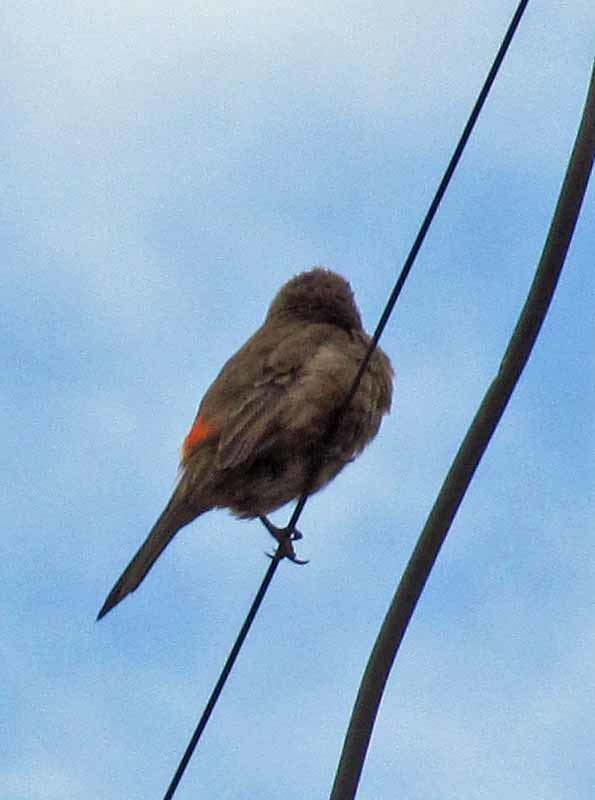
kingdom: Animalia
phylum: Chordata
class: Aves
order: Passeriformes
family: Fringillidae
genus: Haemorhous
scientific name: Haemorhous mexicanus
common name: House finch
